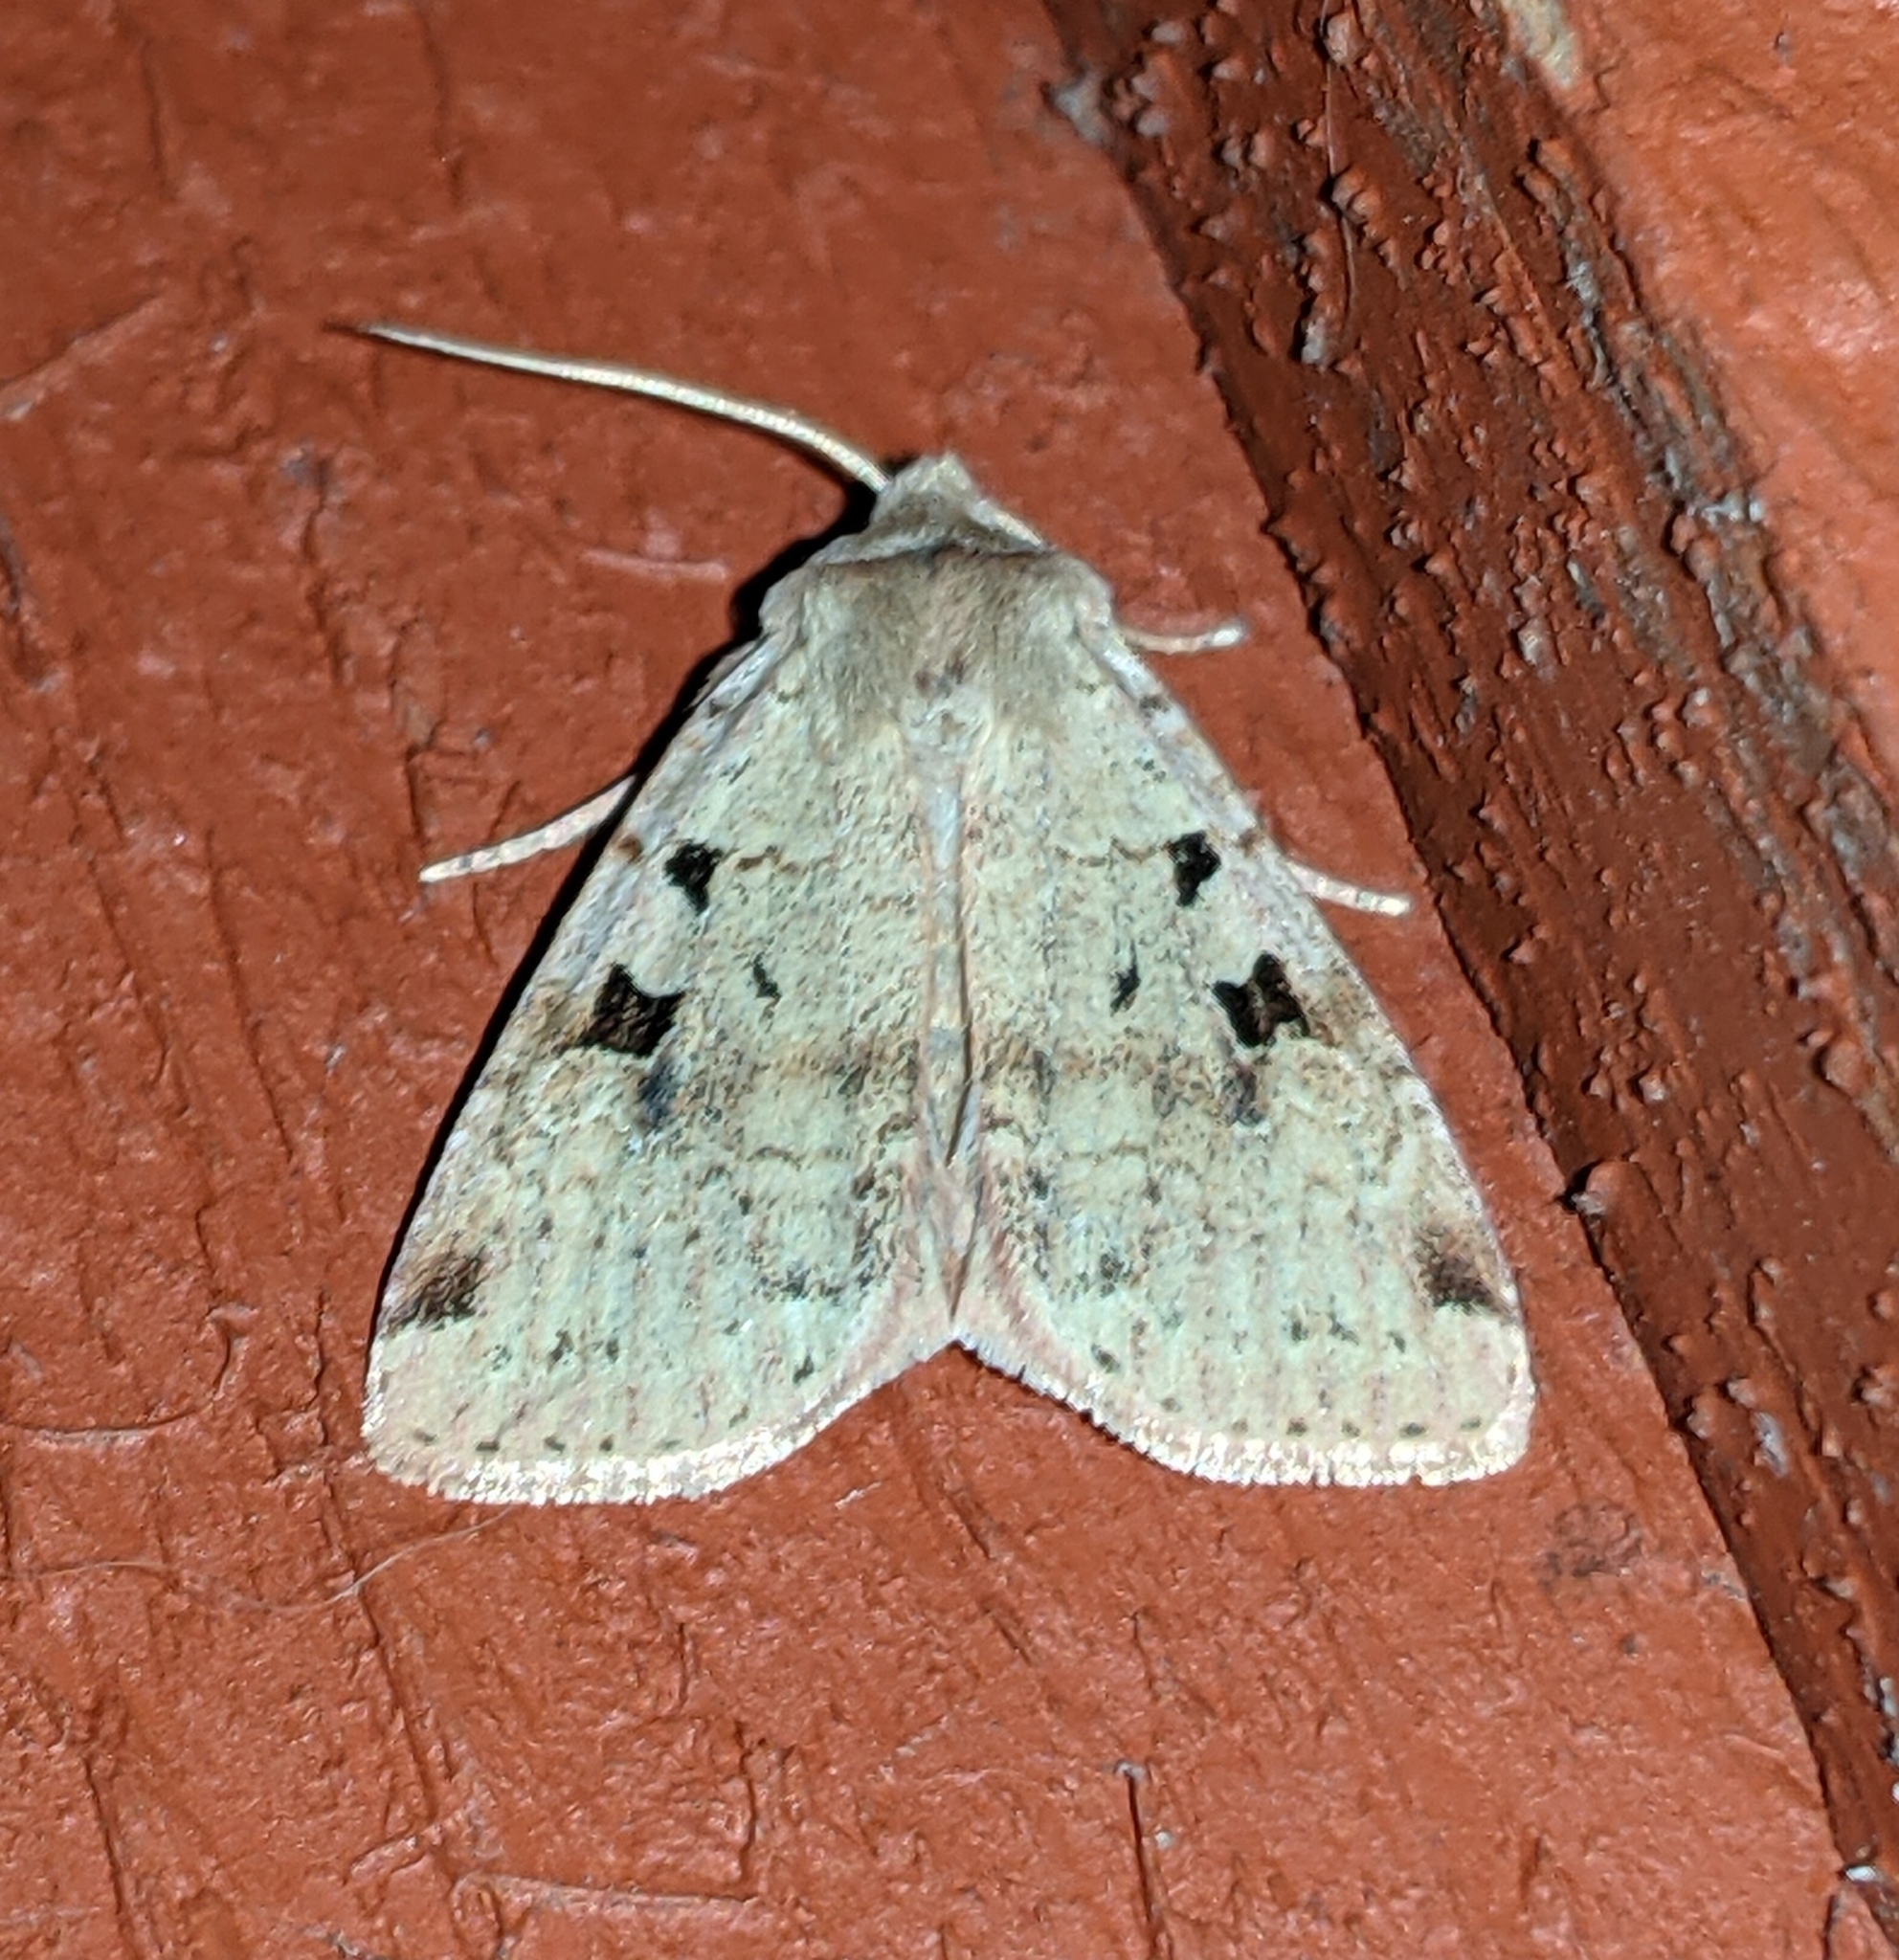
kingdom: Animalia
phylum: Arthropoda
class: Insecta
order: Lepidoptera
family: Noctuidae
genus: Diarsia
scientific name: Diarsia esurialis
